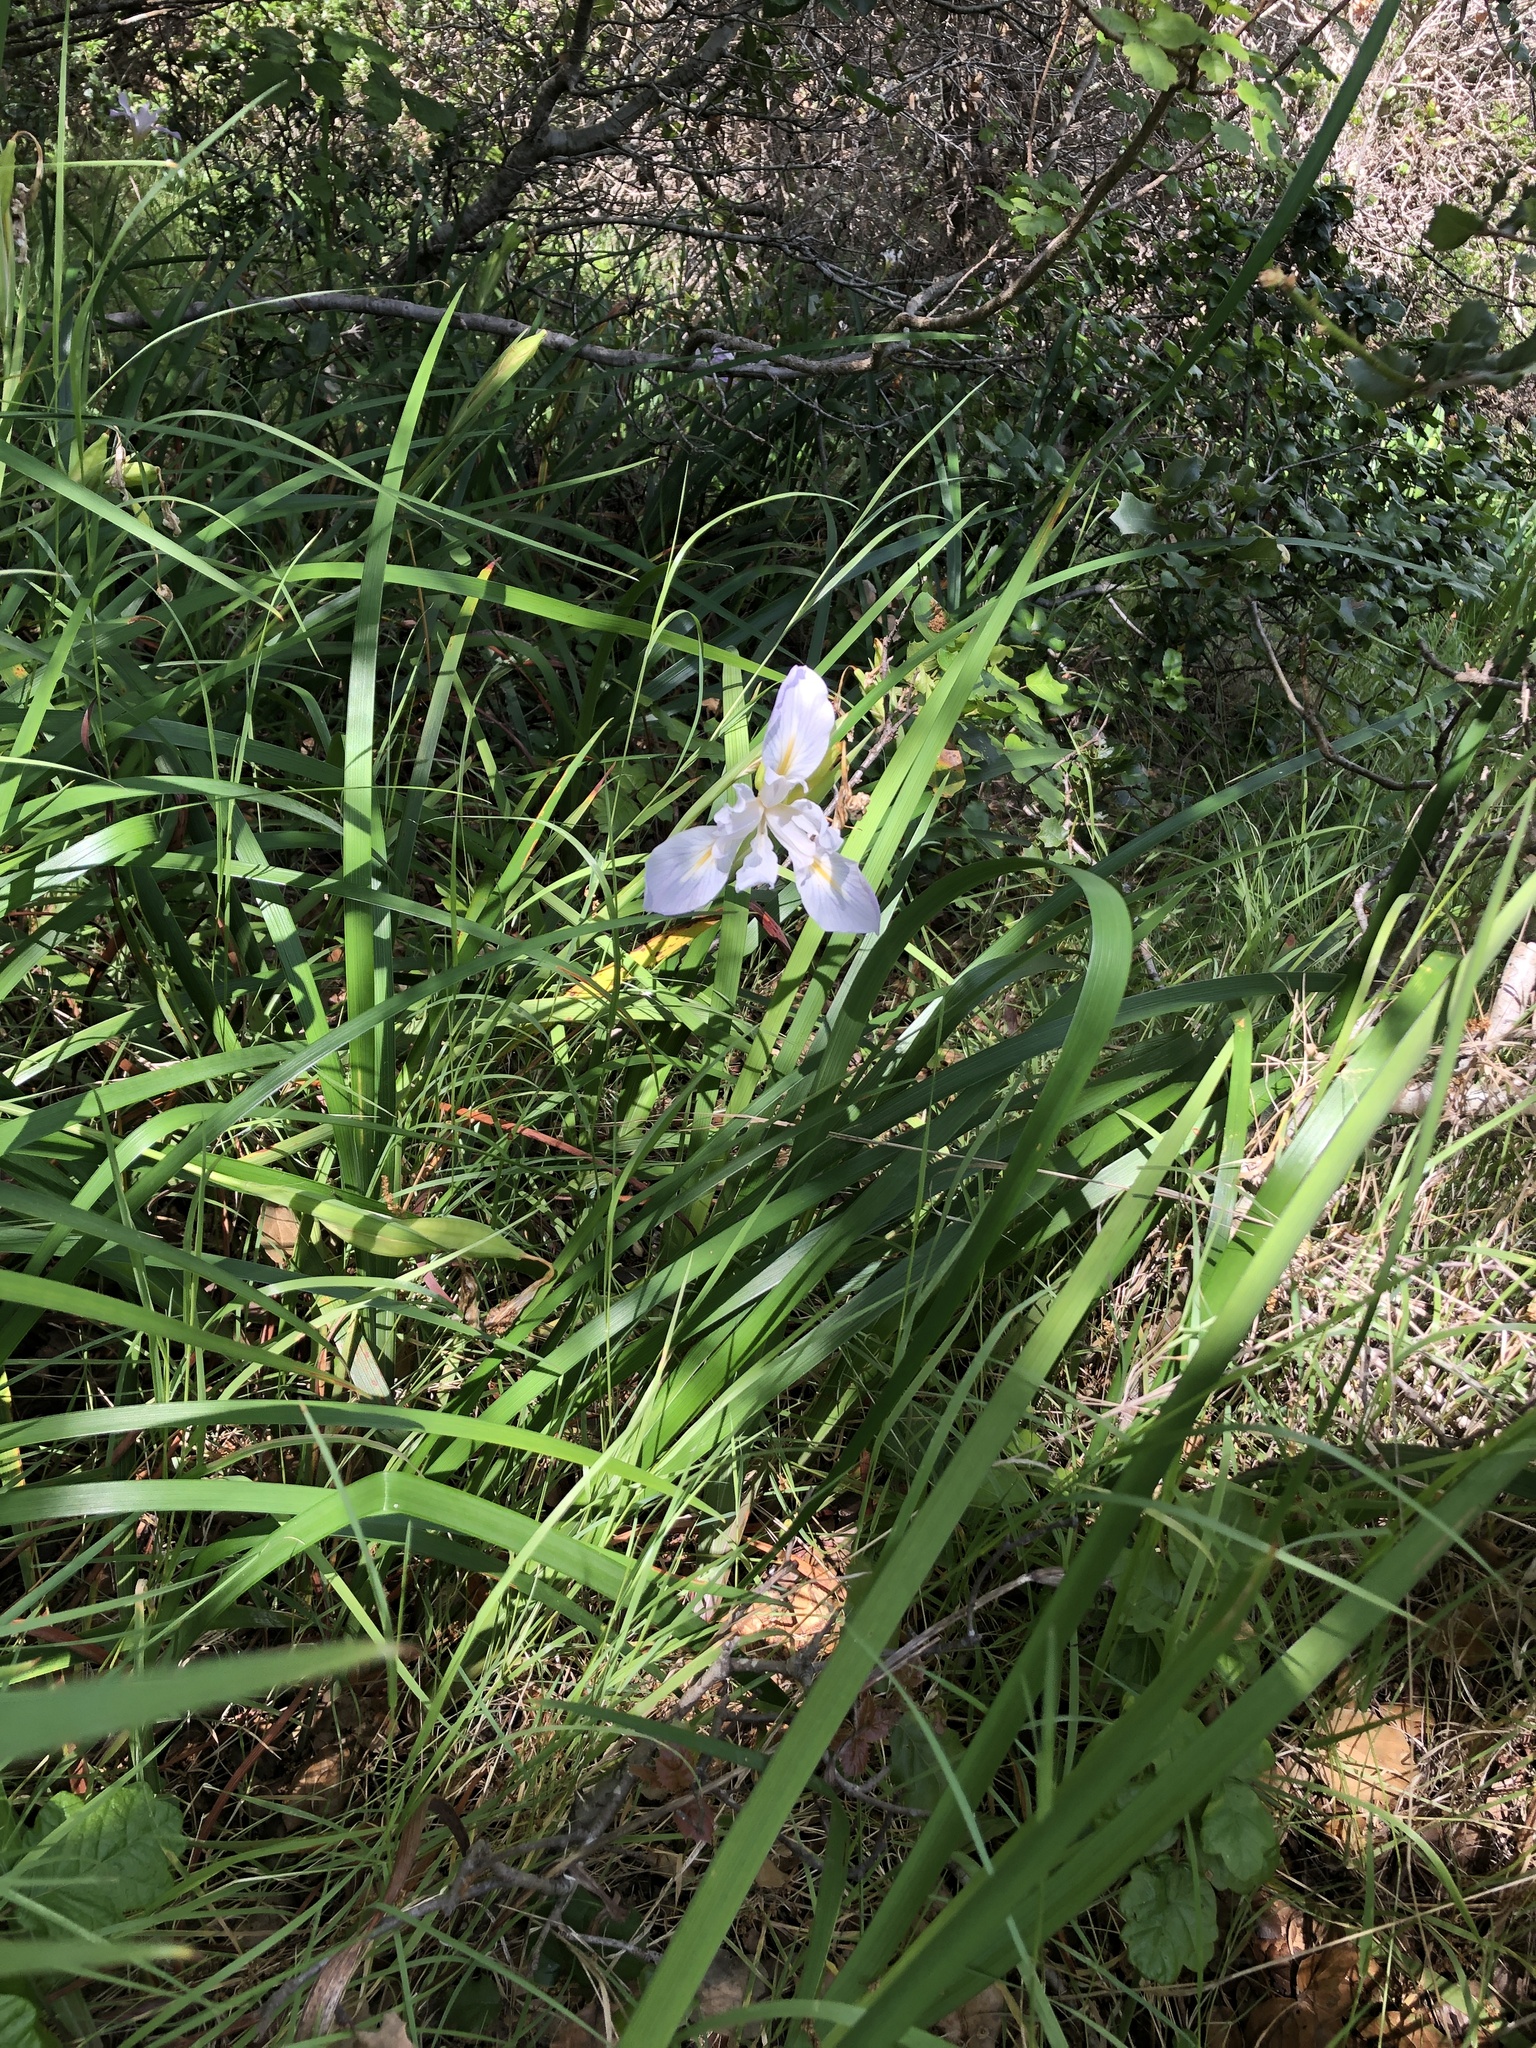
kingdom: Plantae
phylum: Tracheophyta
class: Liliopsida
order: Asparagales
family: Iridaceae
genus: Iris
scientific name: Iris douglasiana
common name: Marin iris
